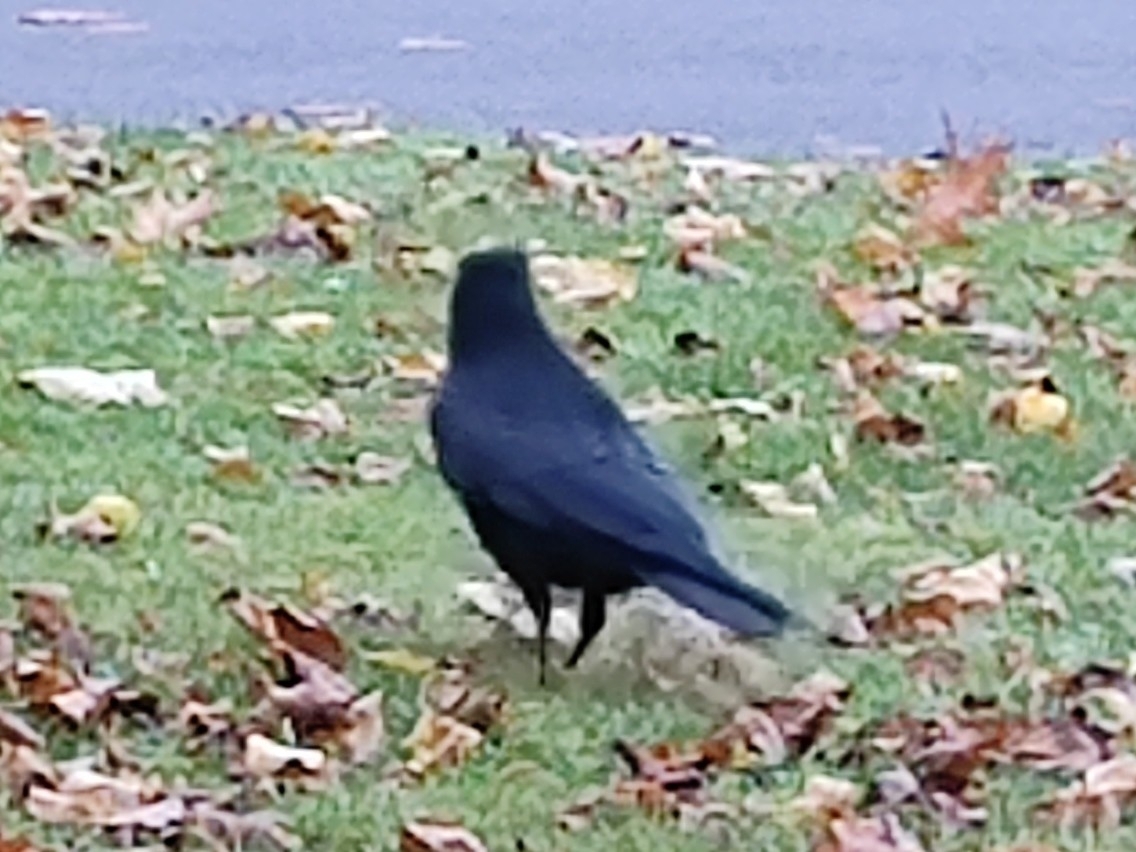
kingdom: Animalia
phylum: Chordata
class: Aves
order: Passeriformes
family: Corvidae
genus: Corvus
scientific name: Corvus corone
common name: Carrion crow
